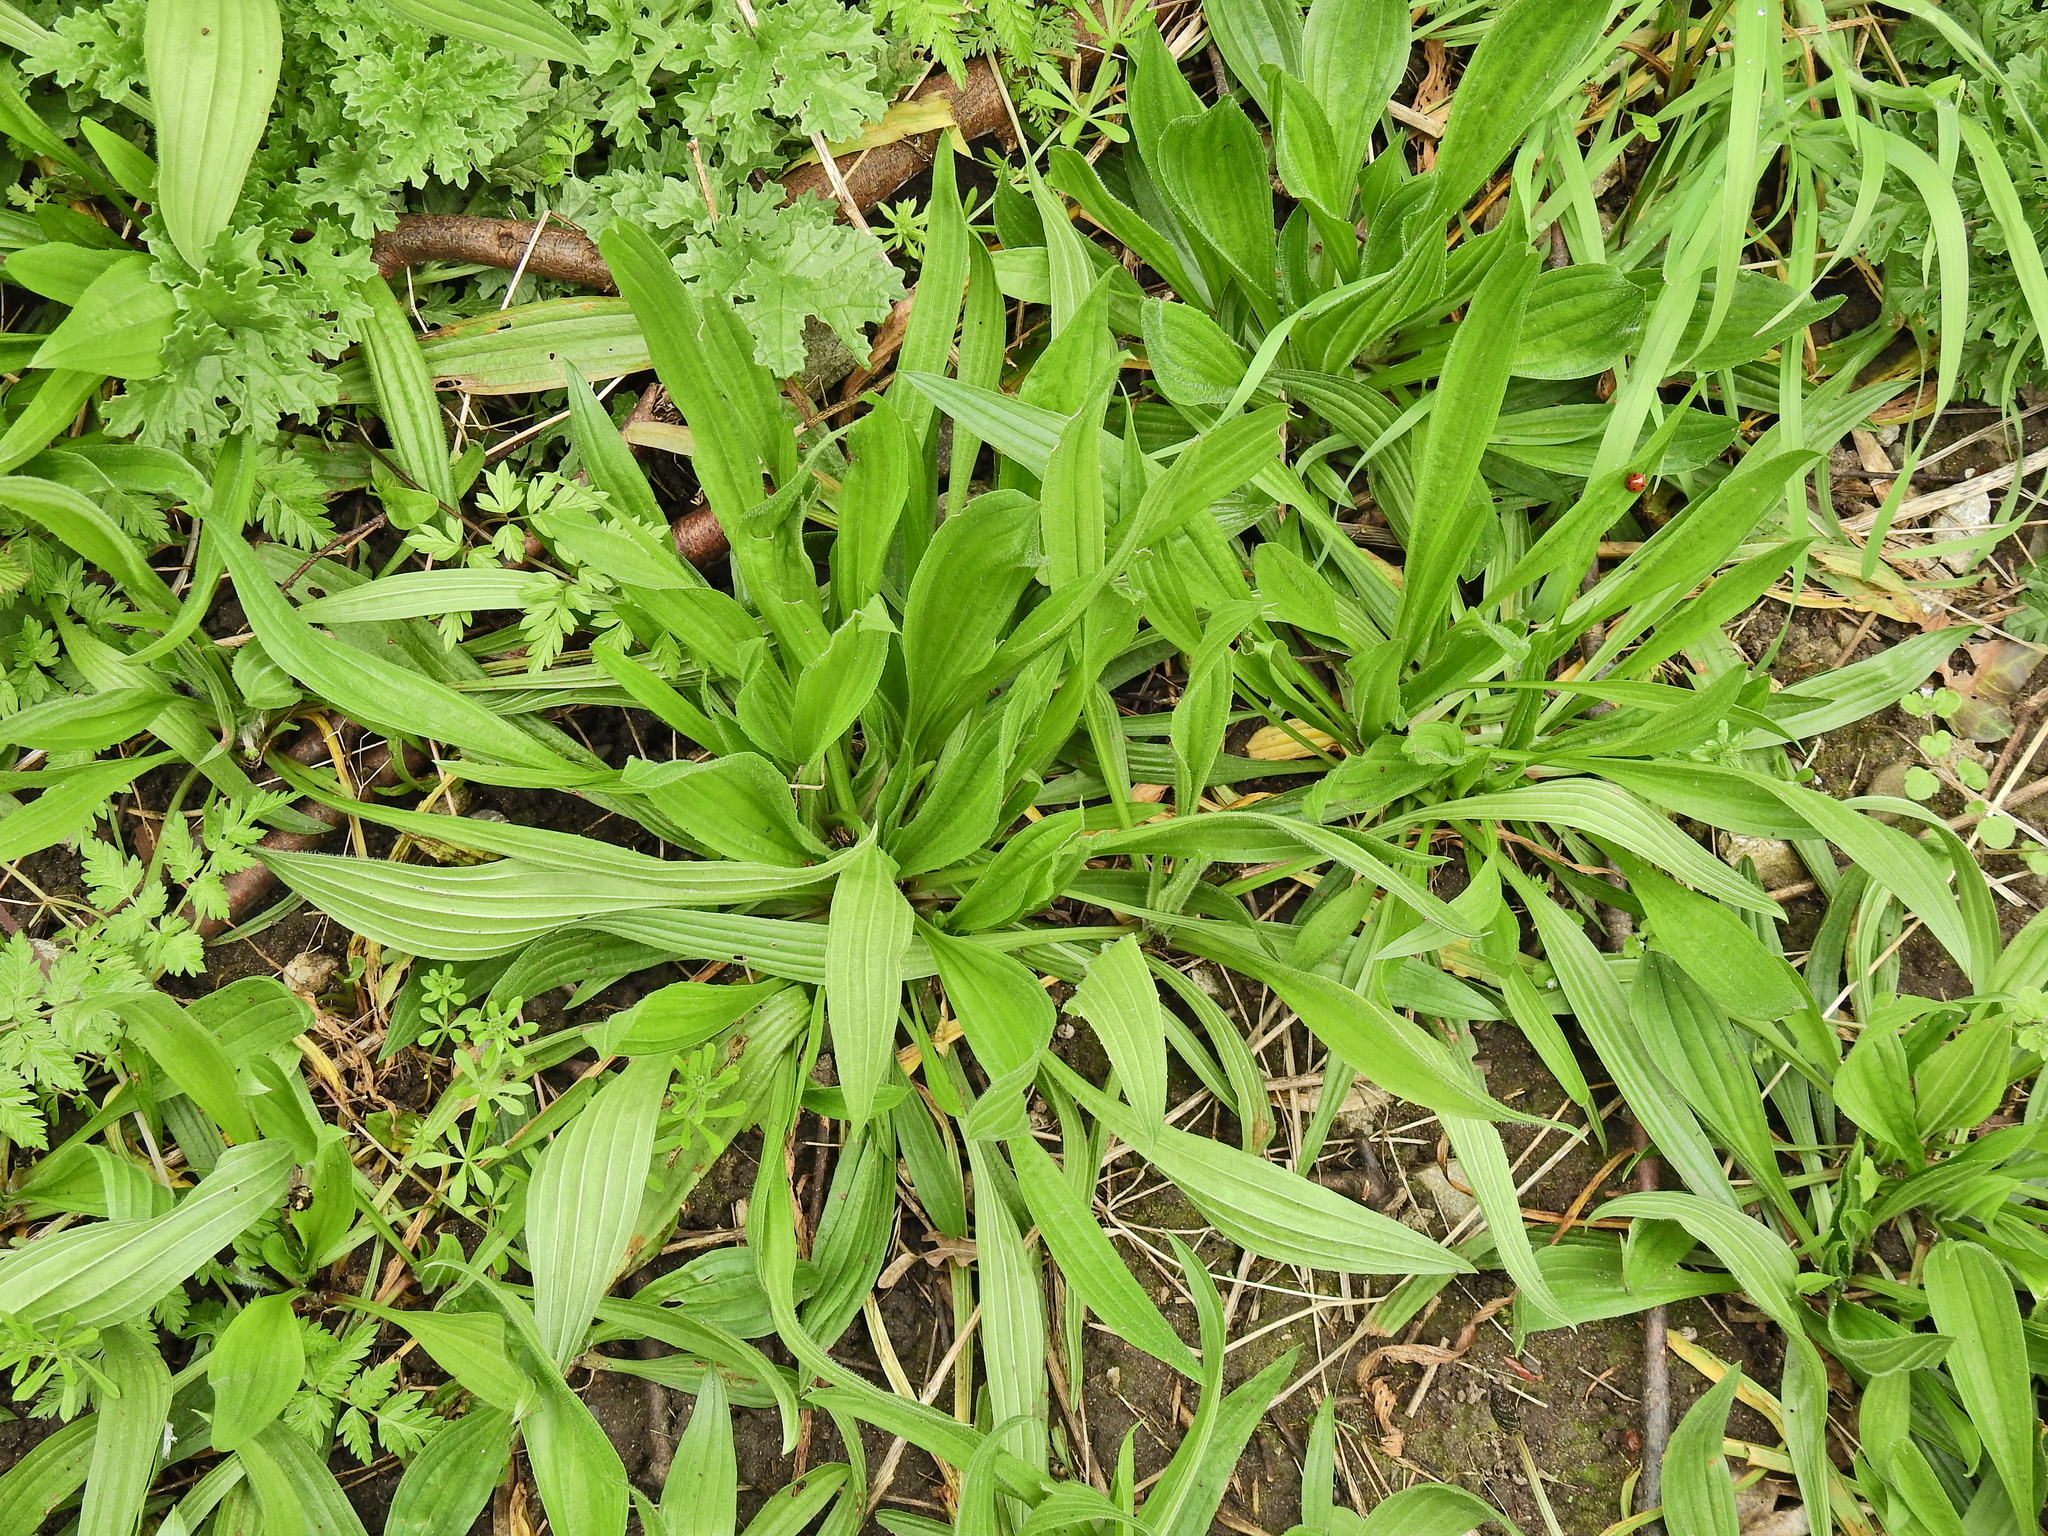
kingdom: Plantae
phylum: Tracheophyta
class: Magnoliopsida
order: Lamiales
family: Plantaginaceae
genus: Plantago
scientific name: Plantago lanceolata
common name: Ribwort plantain
